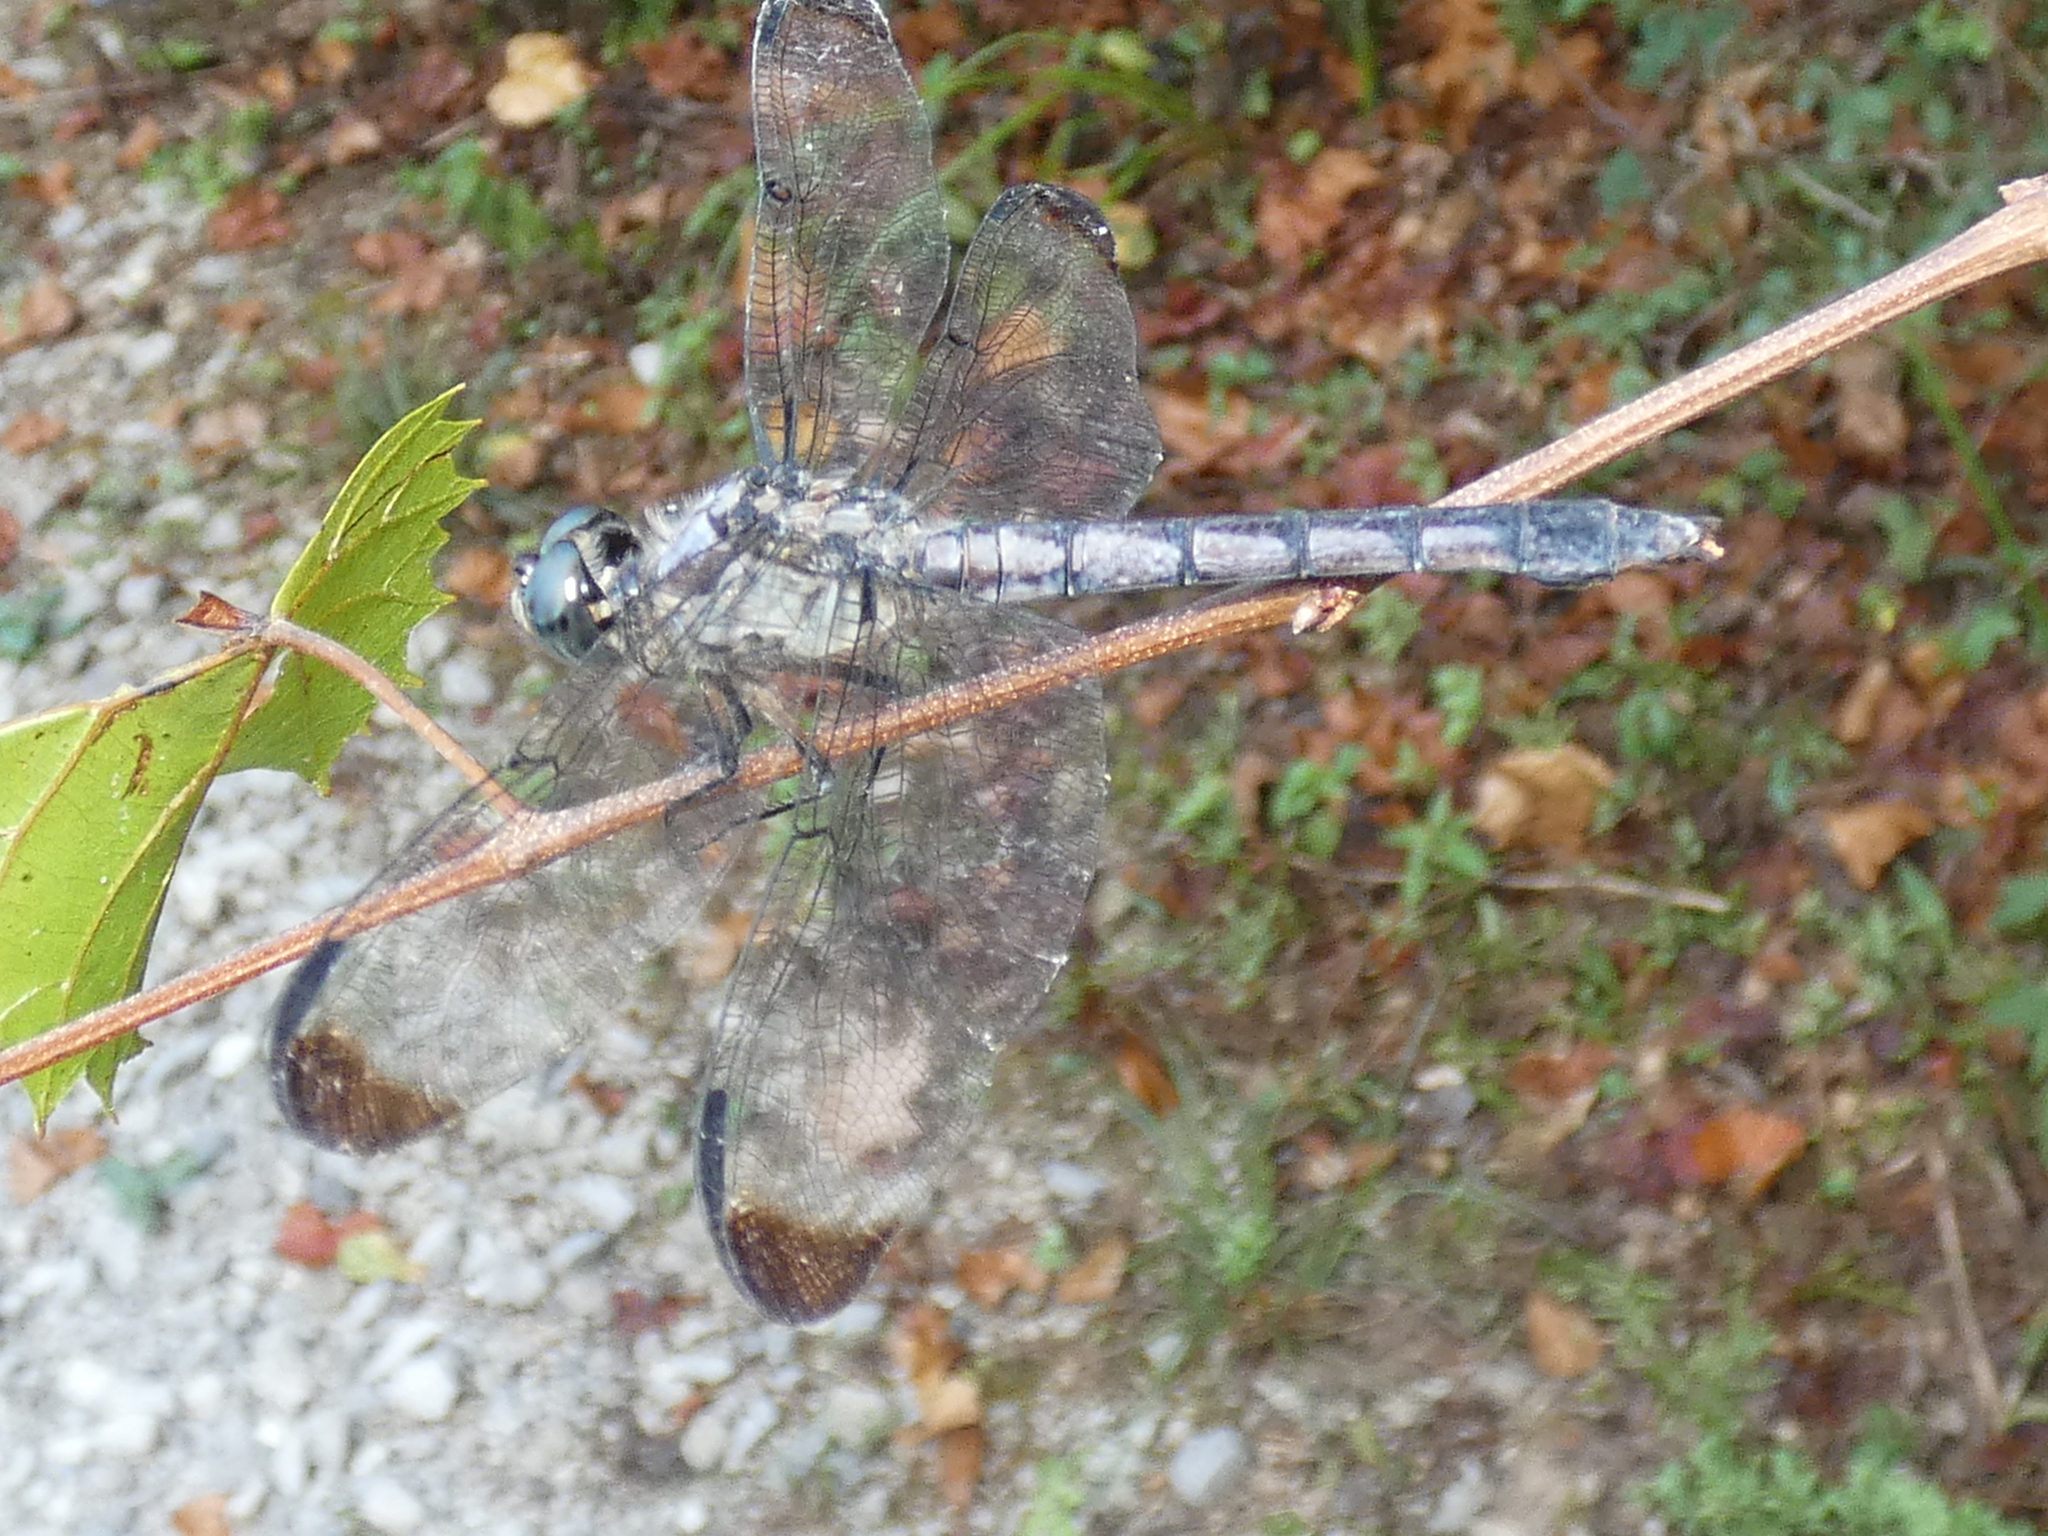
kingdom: Animalia
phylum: Arthropoda
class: Insecta
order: Odonata
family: Libellulidae
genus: Libellula
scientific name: Libellula vibrans
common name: Great blue skimmer
